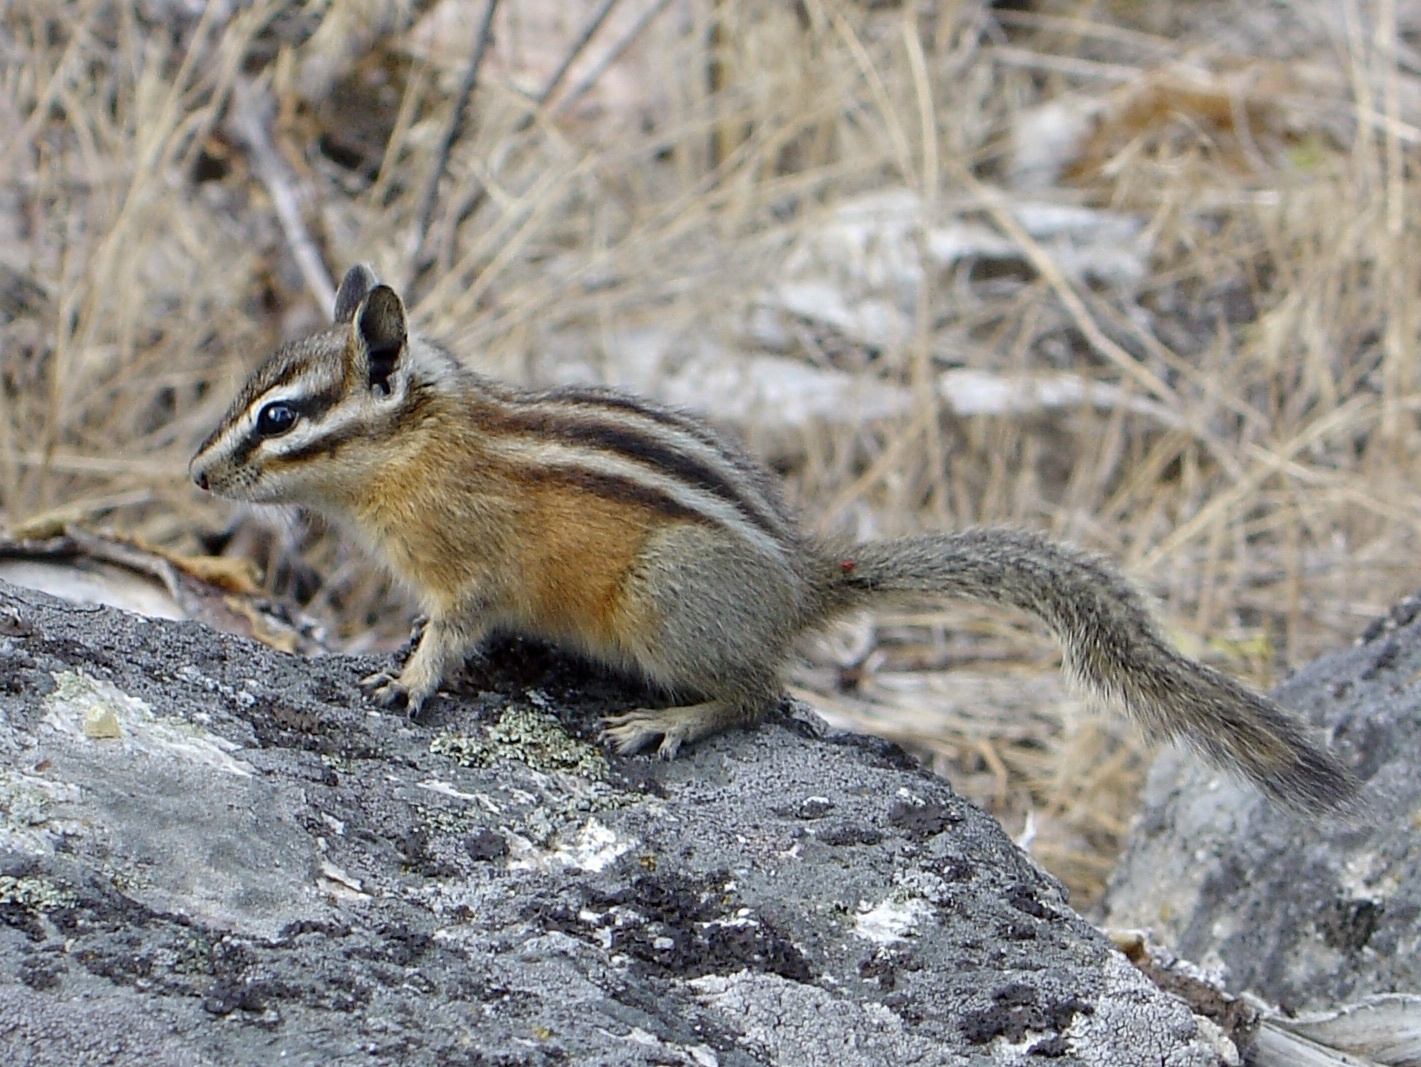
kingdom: Animalia
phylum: Chordata
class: Mammalia
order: Rodentia
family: Sciuridae
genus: Tamias
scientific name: Tamias amoenus
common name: Yellow-pine chipmunk
